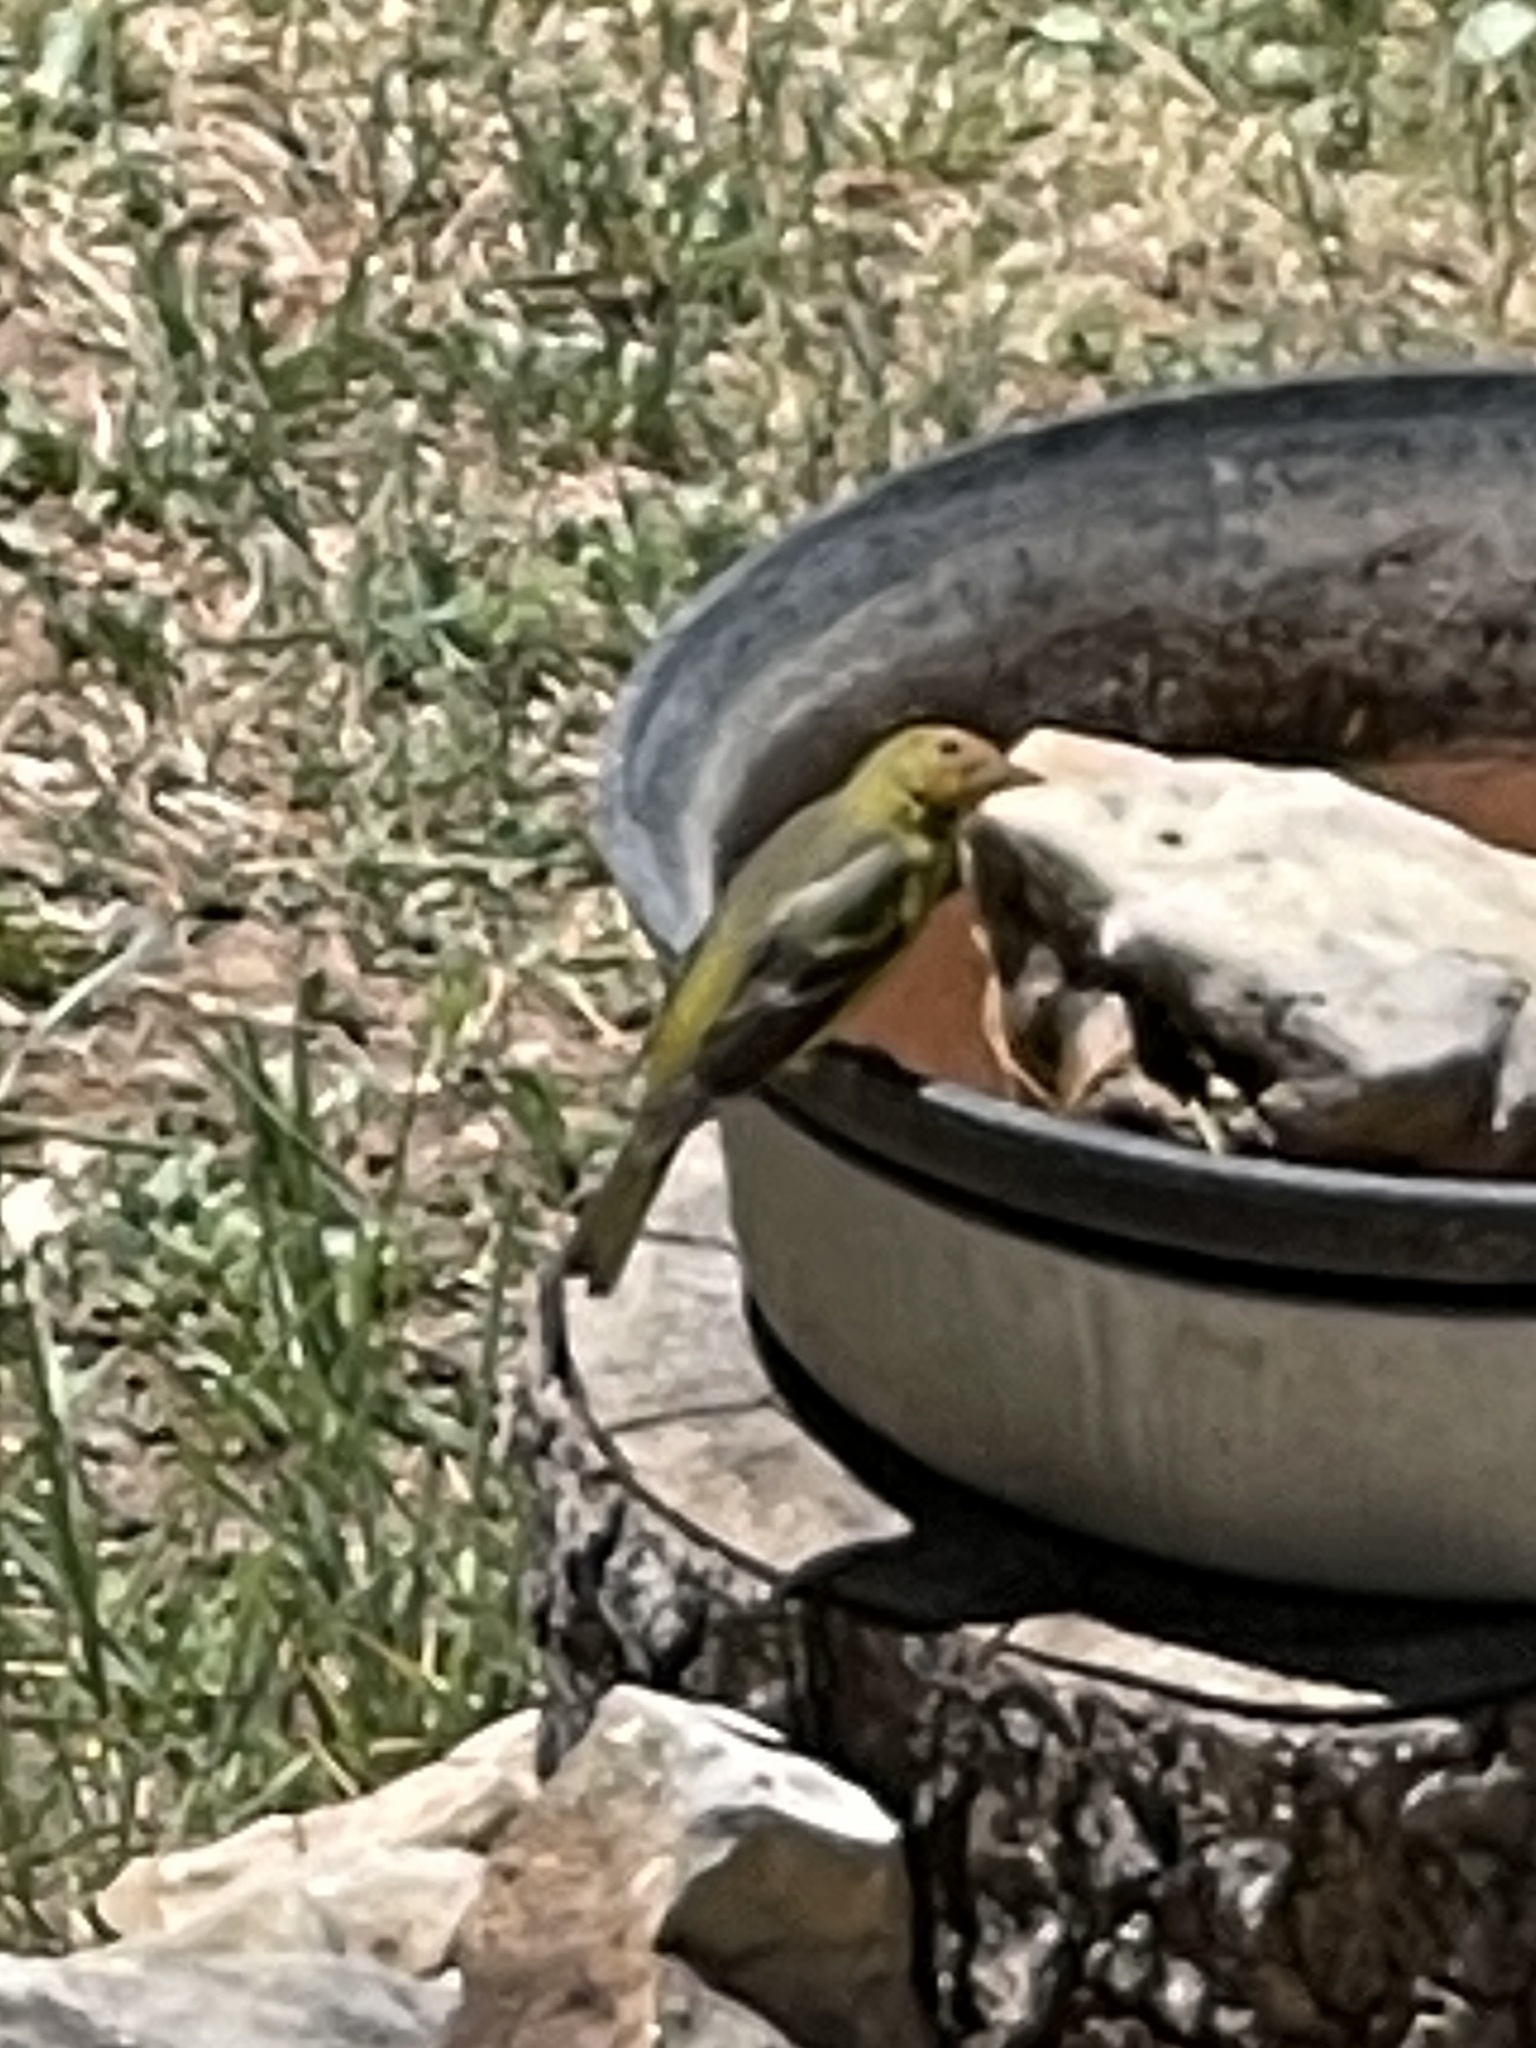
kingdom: Animalia
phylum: Chordata
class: Aves
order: Passeriformes
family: Cardinalidae
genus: Piranga
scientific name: Piranga ludoviciana
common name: Western tanager
